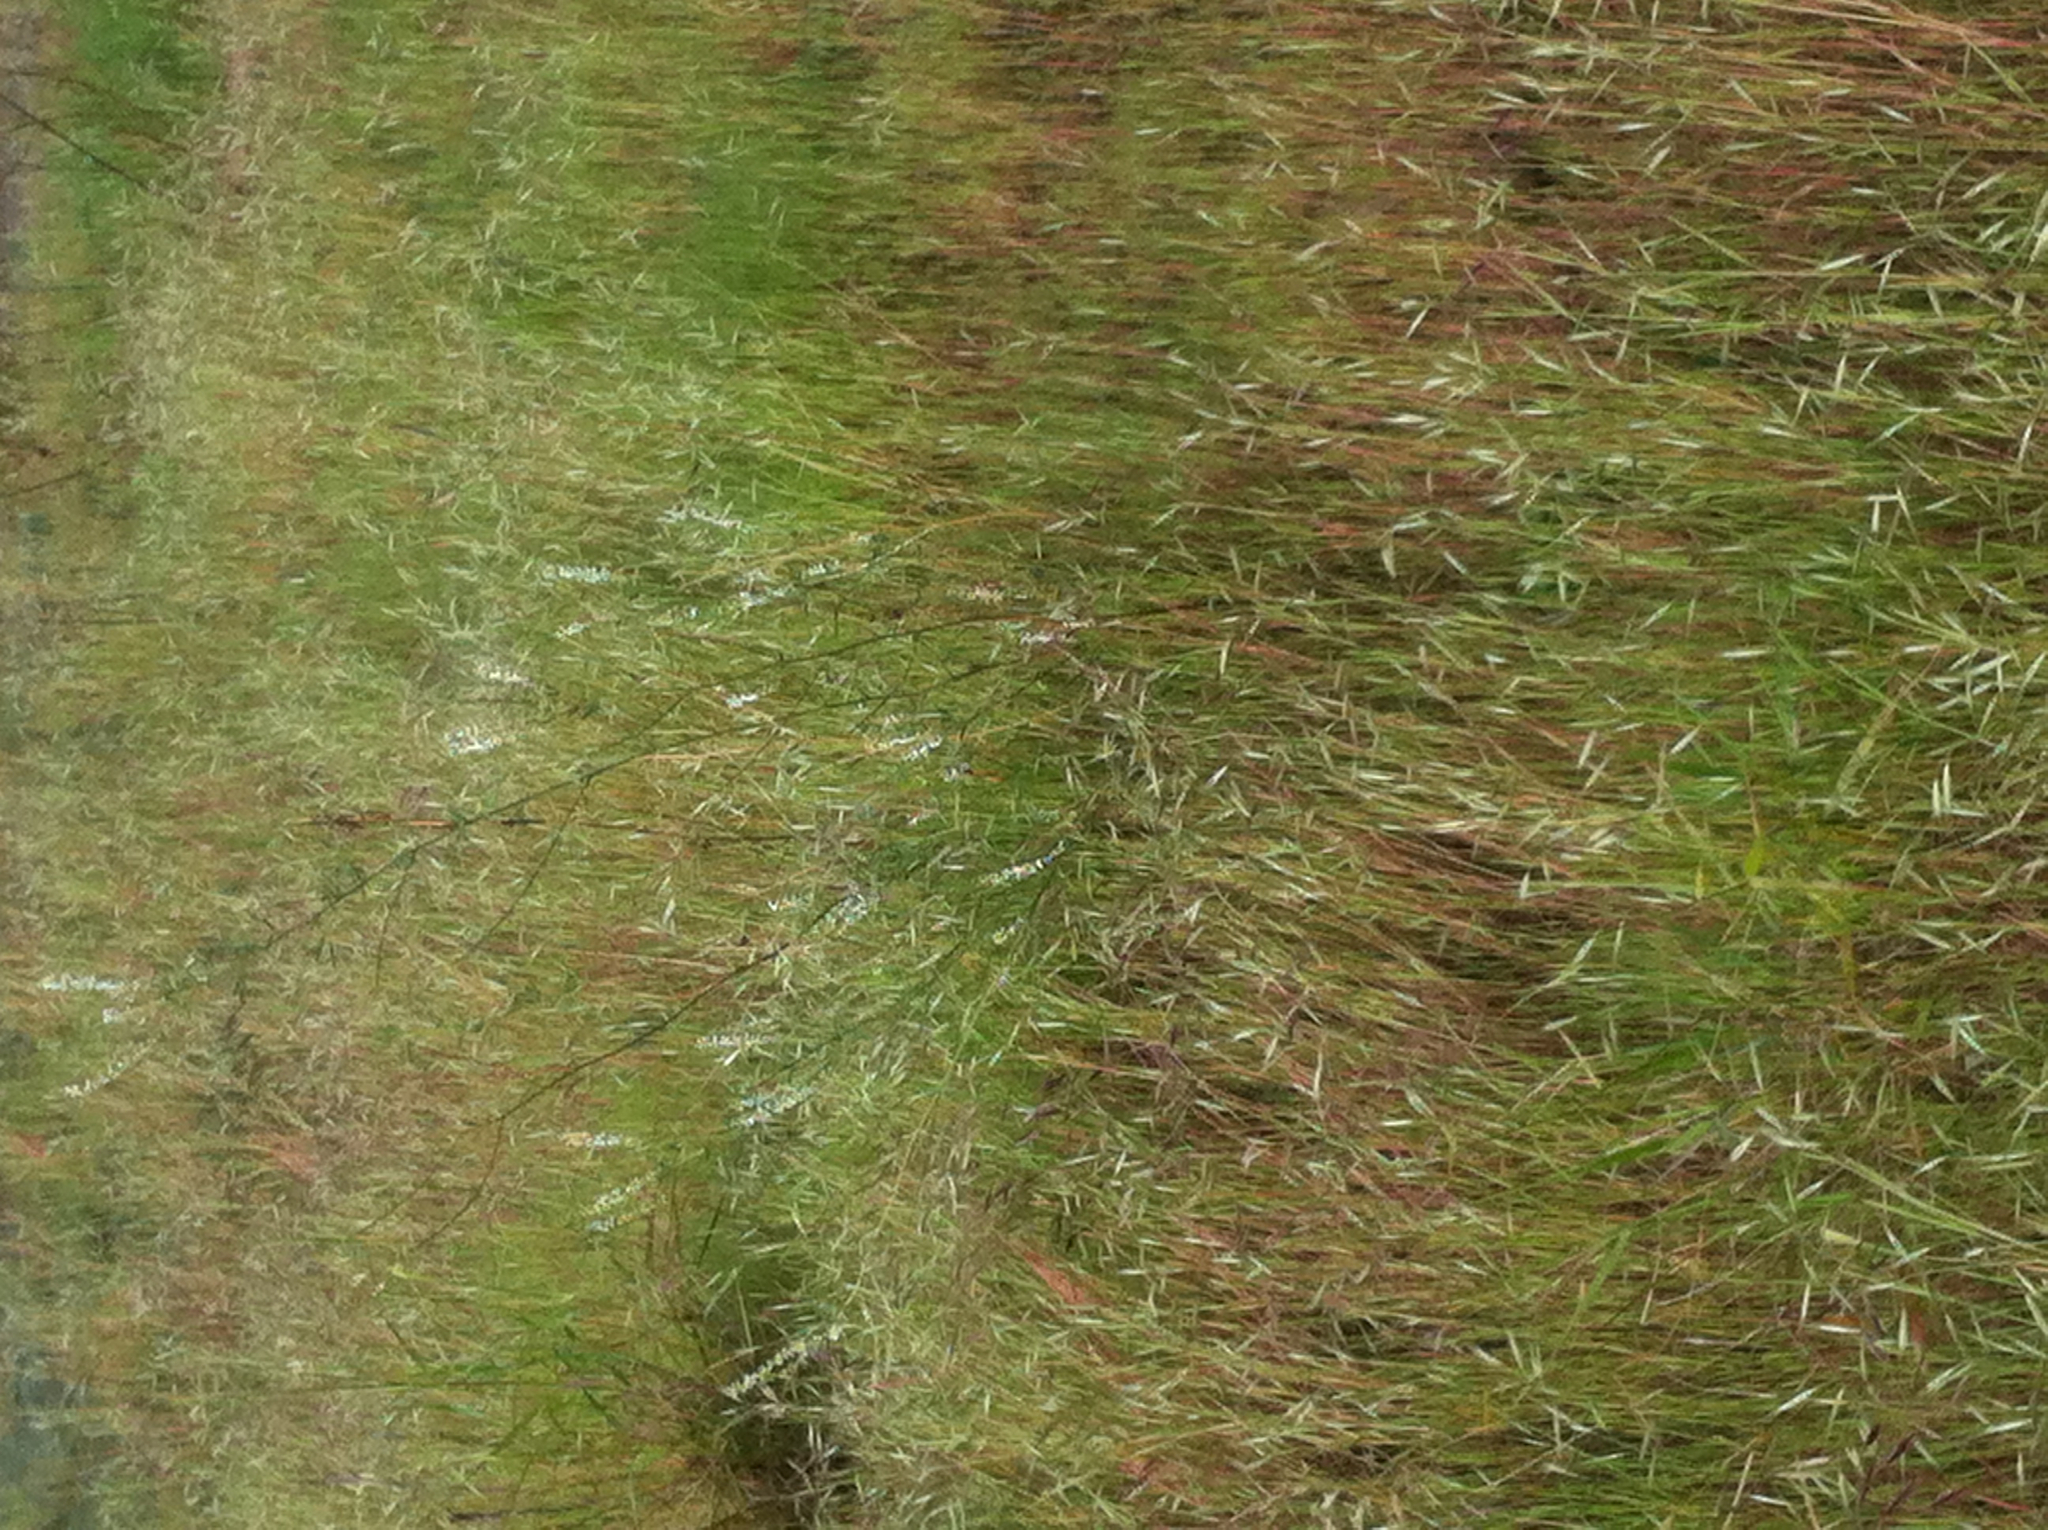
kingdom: Plantae
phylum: Tracheophyta
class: Magnoliopsida
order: Fabales
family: Fabaceae
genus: Melilotus
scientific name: Melilotus albus
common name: White melilot
